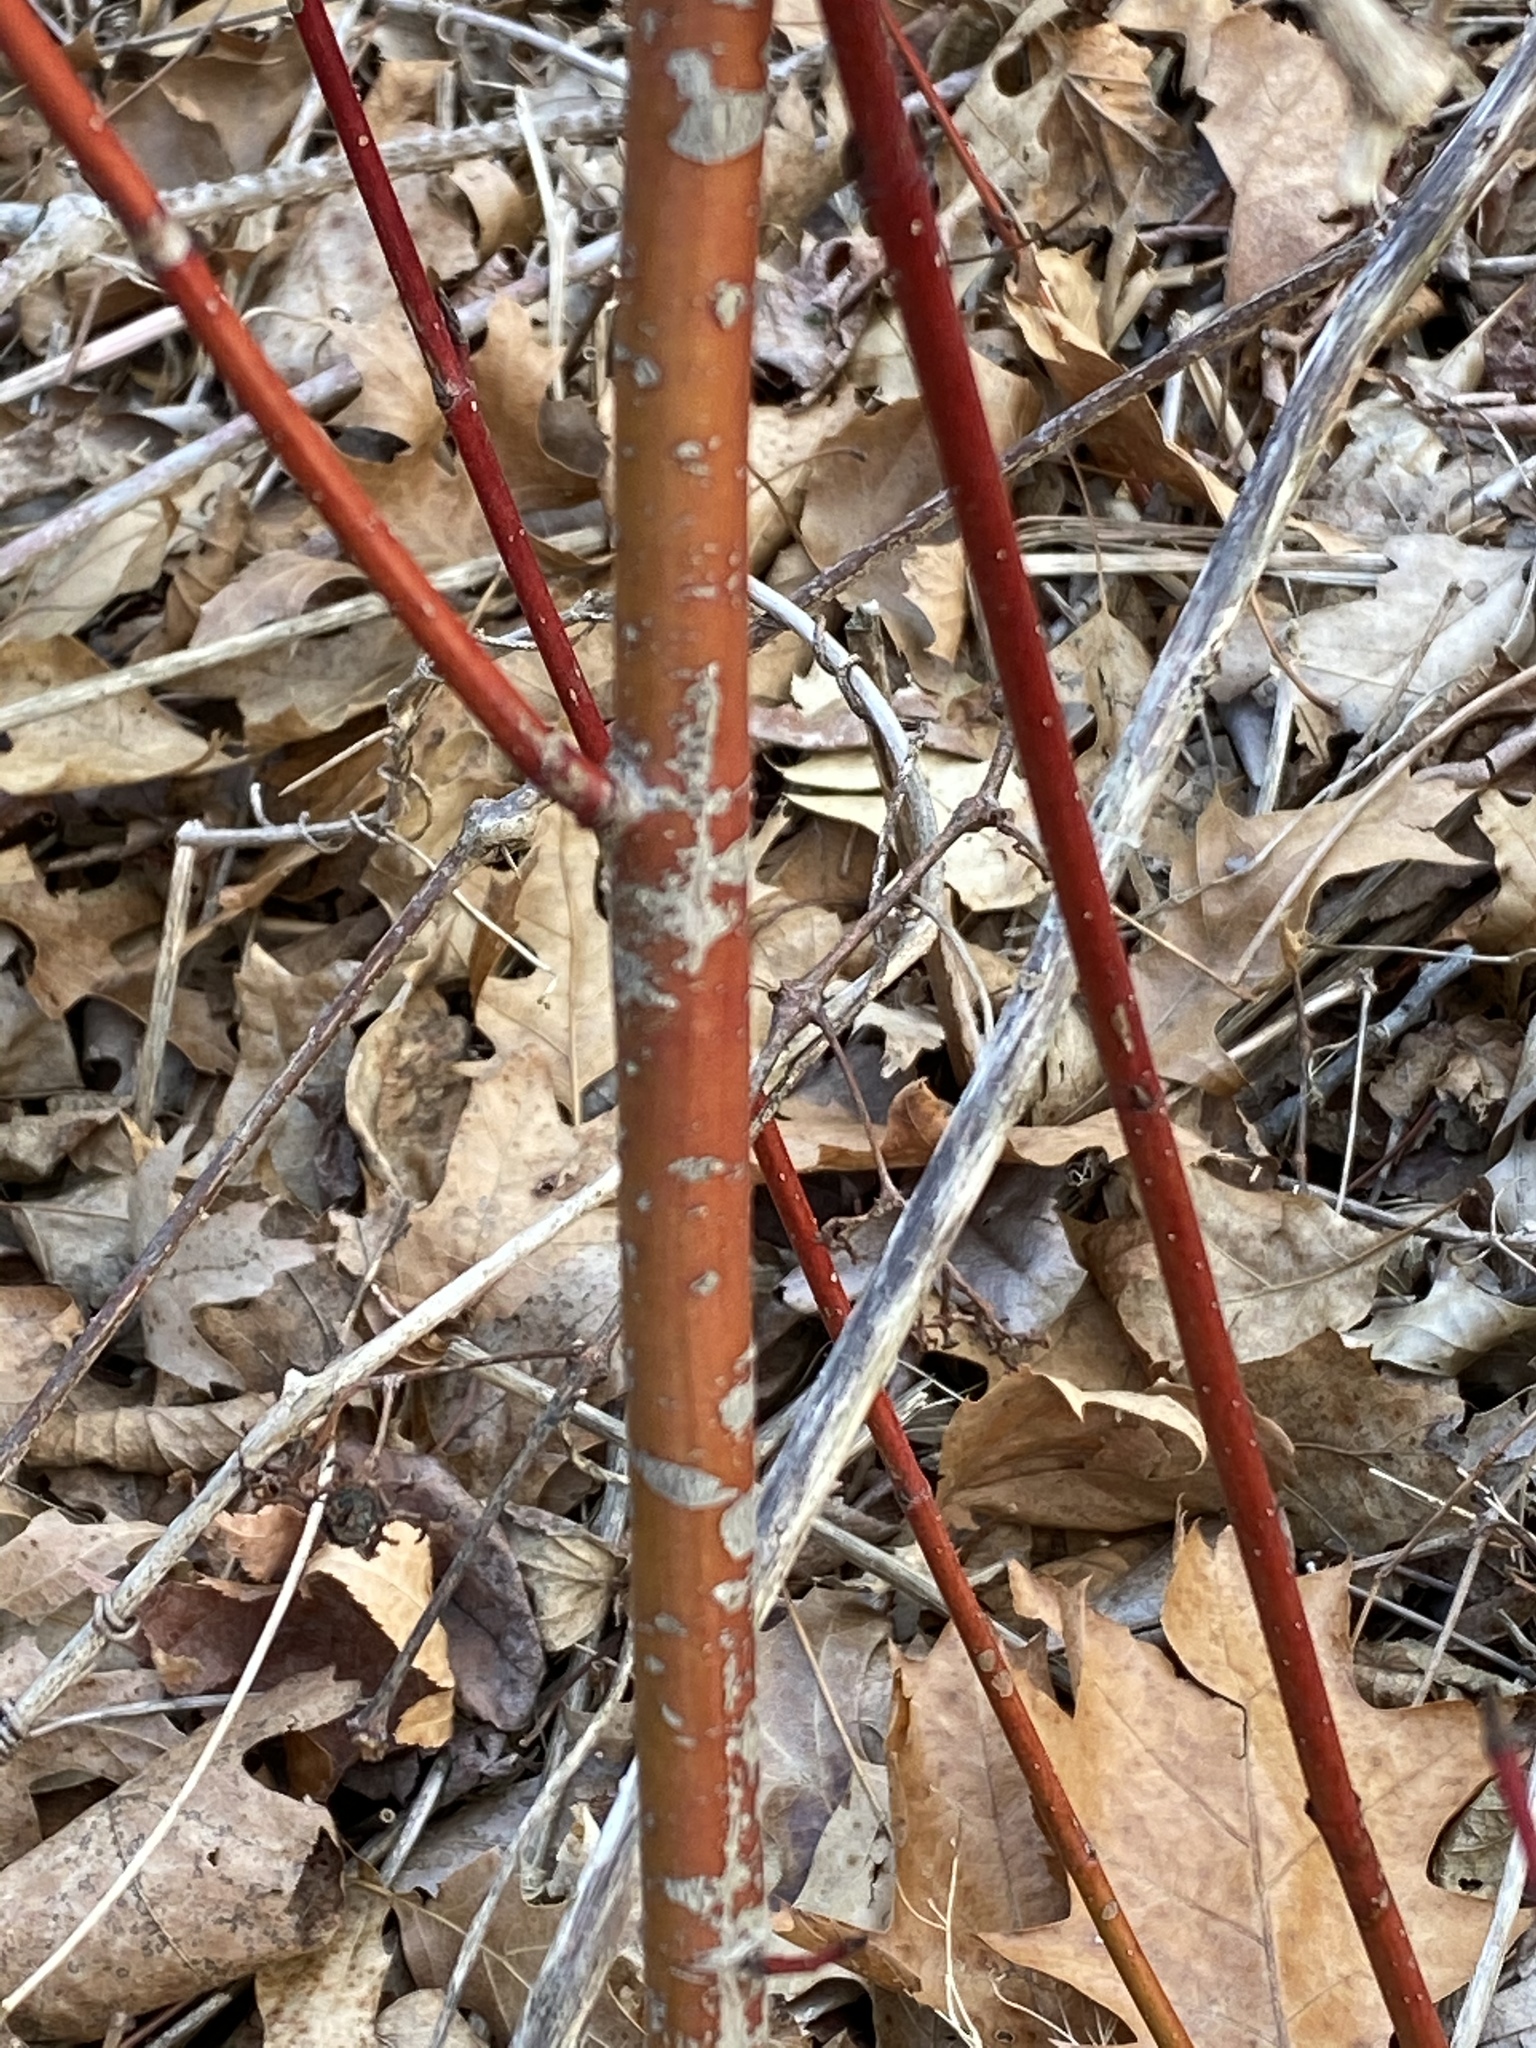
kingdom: Plantae
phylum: Tracheophyta
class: Magnoliopsida
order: Cornales
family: Cornaceae
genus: Cornus
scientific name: Cornus amomum
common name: Silky dogwood
